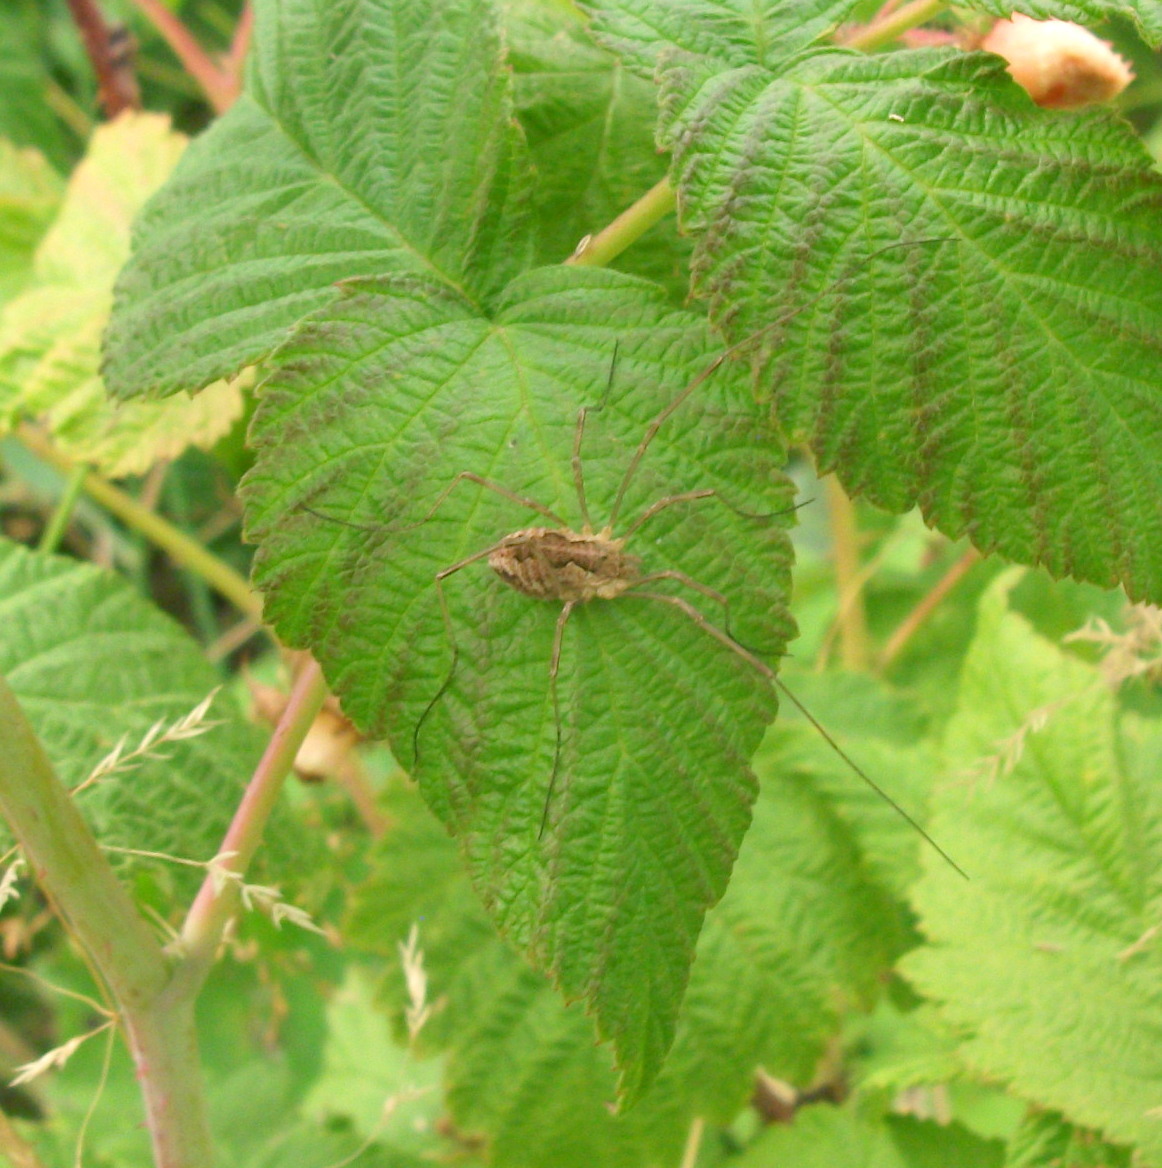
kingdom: Animalia
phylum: Arthropoda
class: Arachnida
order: Opiliones
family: Phalangiidae
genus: Mitopus
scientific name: Mitopus morio
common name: Saddleback harvestman
